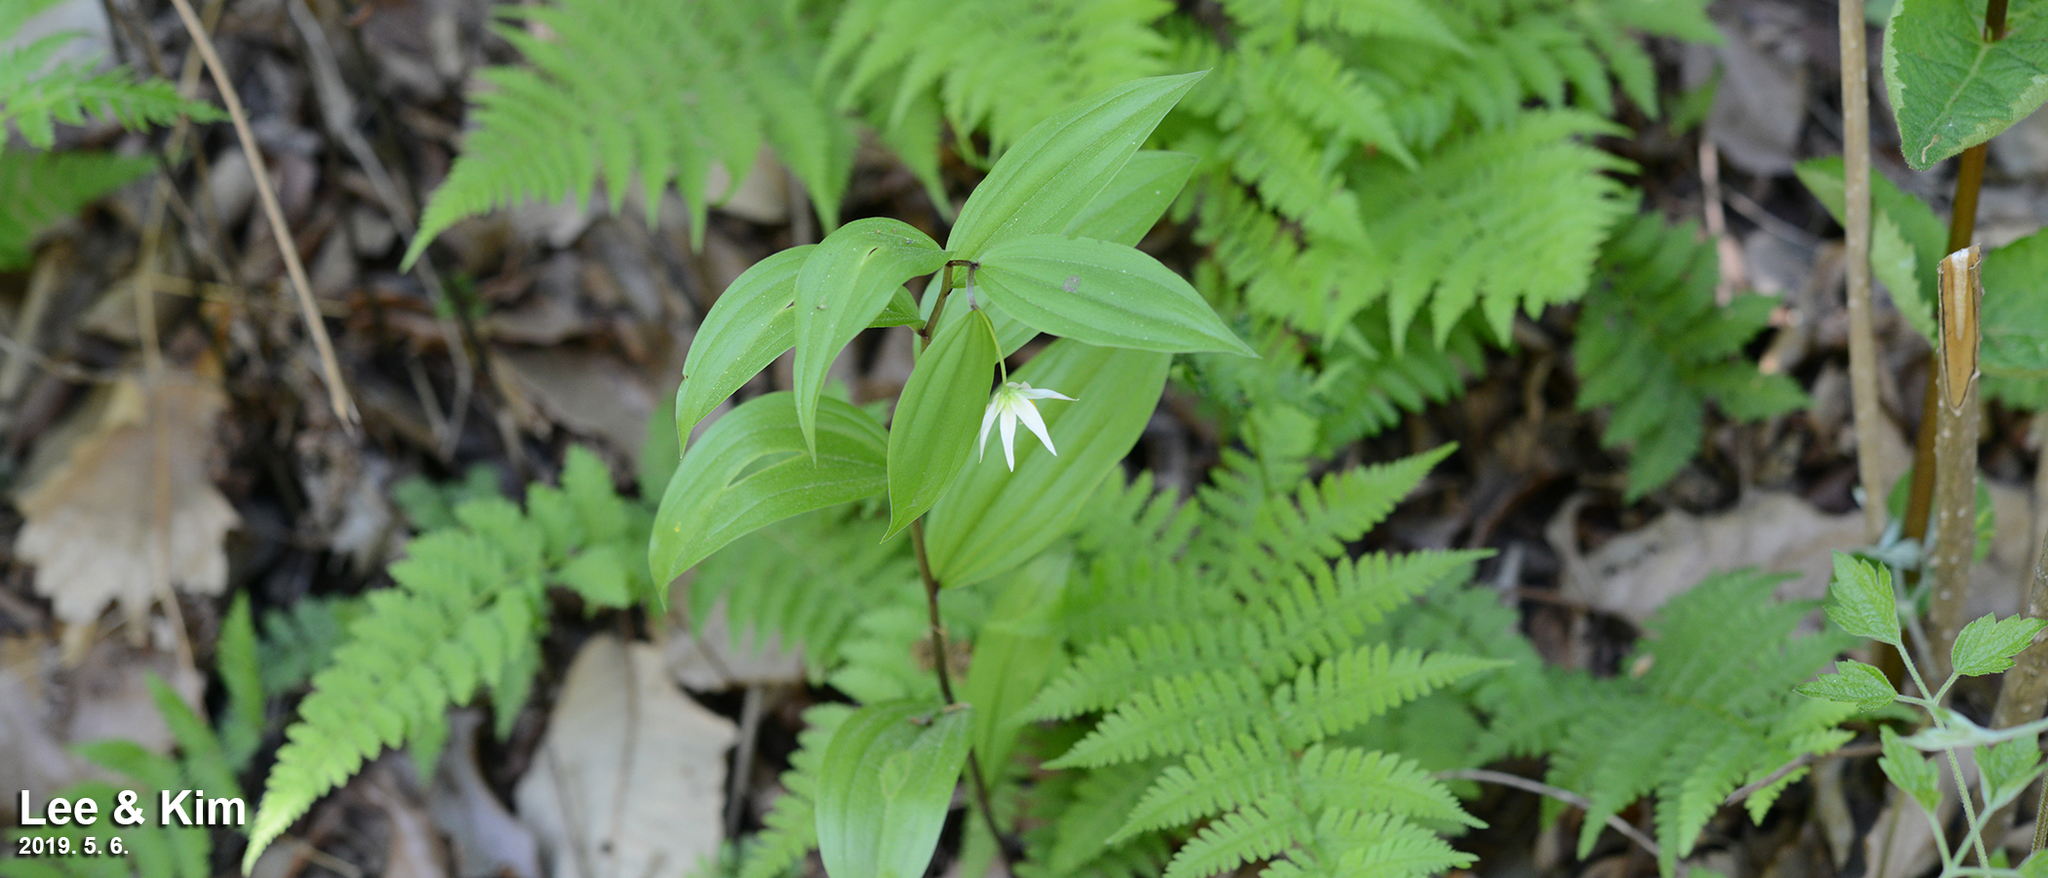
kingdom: Plantae
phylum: Tracheophyta
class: Liliopsida
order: Liliales
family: Colchicaceae
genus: Disporum
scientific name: Disporum viridescens
